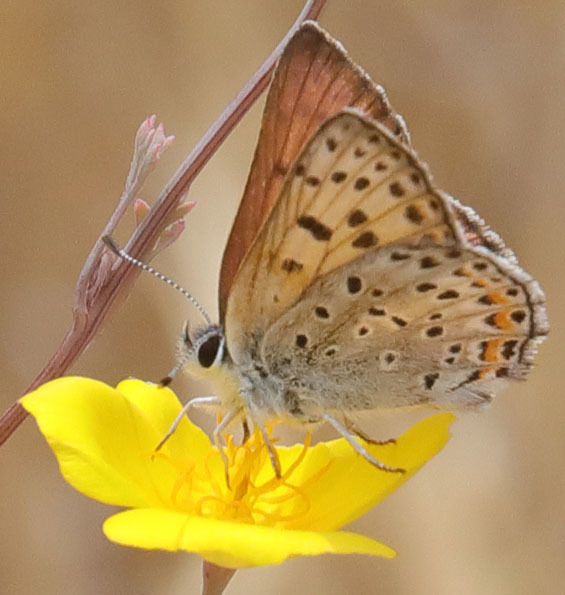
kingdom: Animalia
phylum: Arthropoda
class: Insecta
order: Lepidoptera
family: Lycaenidae
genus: Tharsalea
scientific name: Tharsalea gorgon
